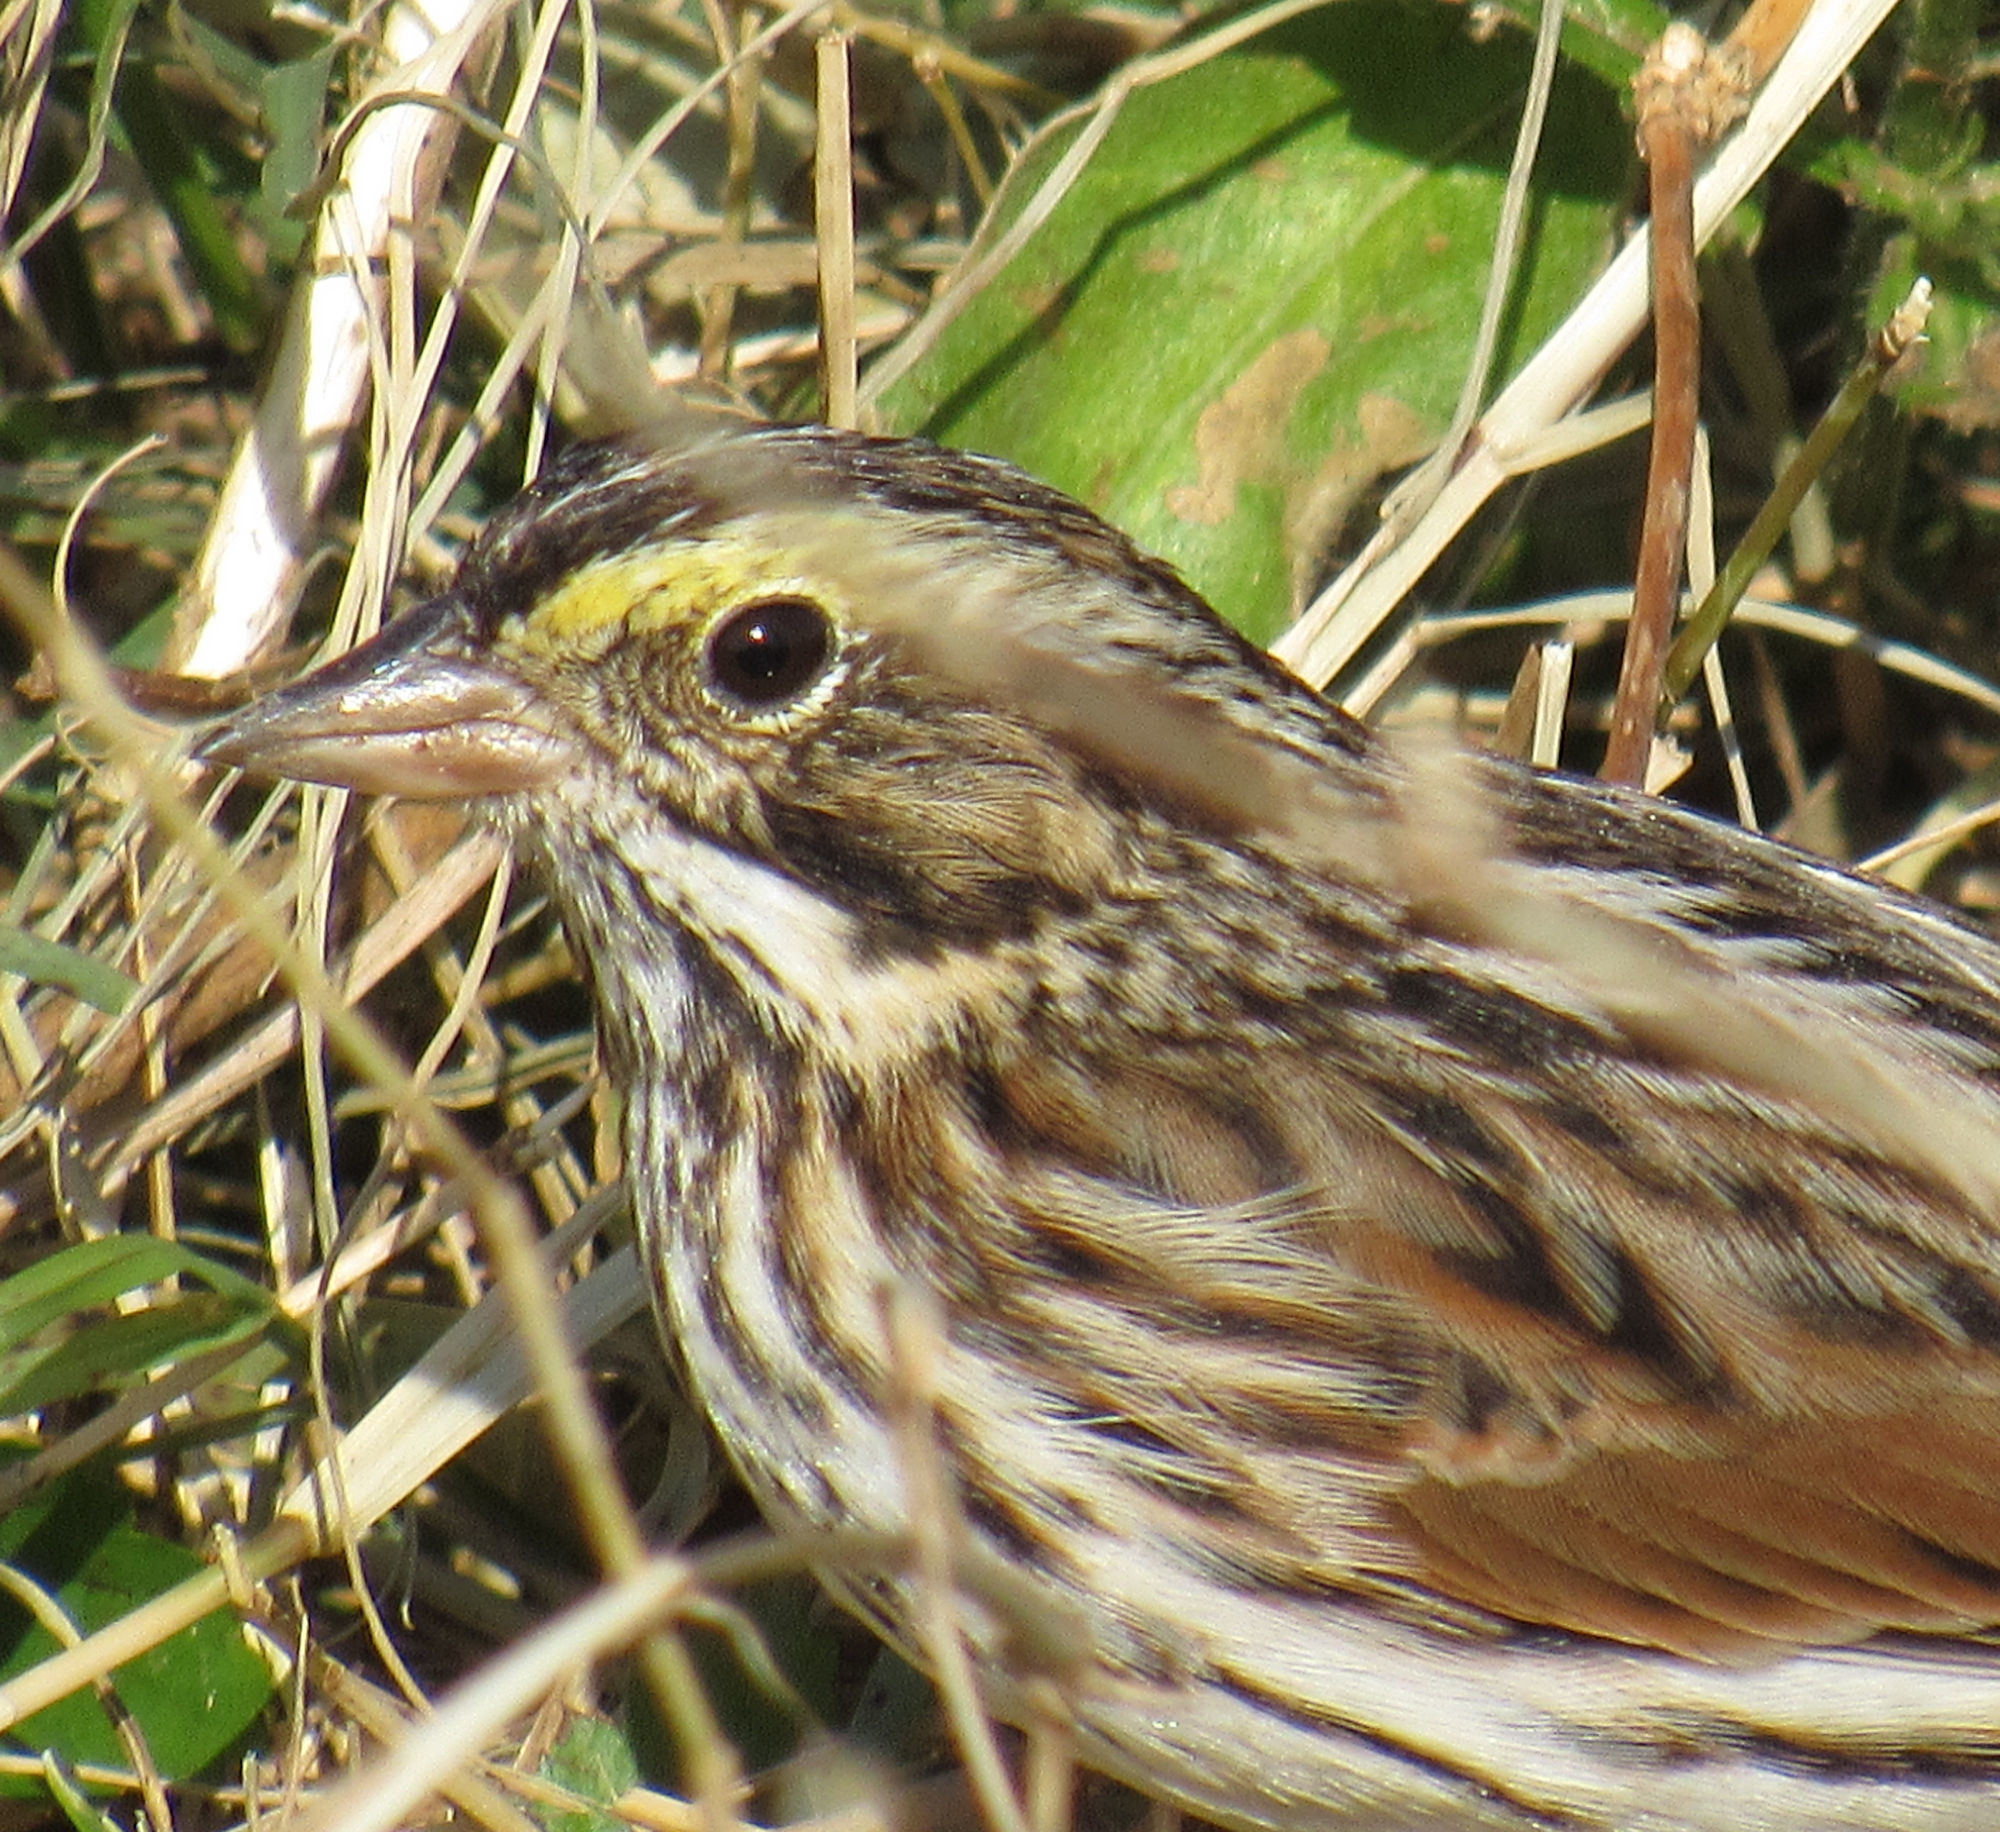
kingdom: Animalia
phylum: Chordata
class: Aves
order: Passeriformes
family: Passerellidae
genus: Passerculus
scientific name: Passerculus sandwichensis
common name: Savannah sparrow
